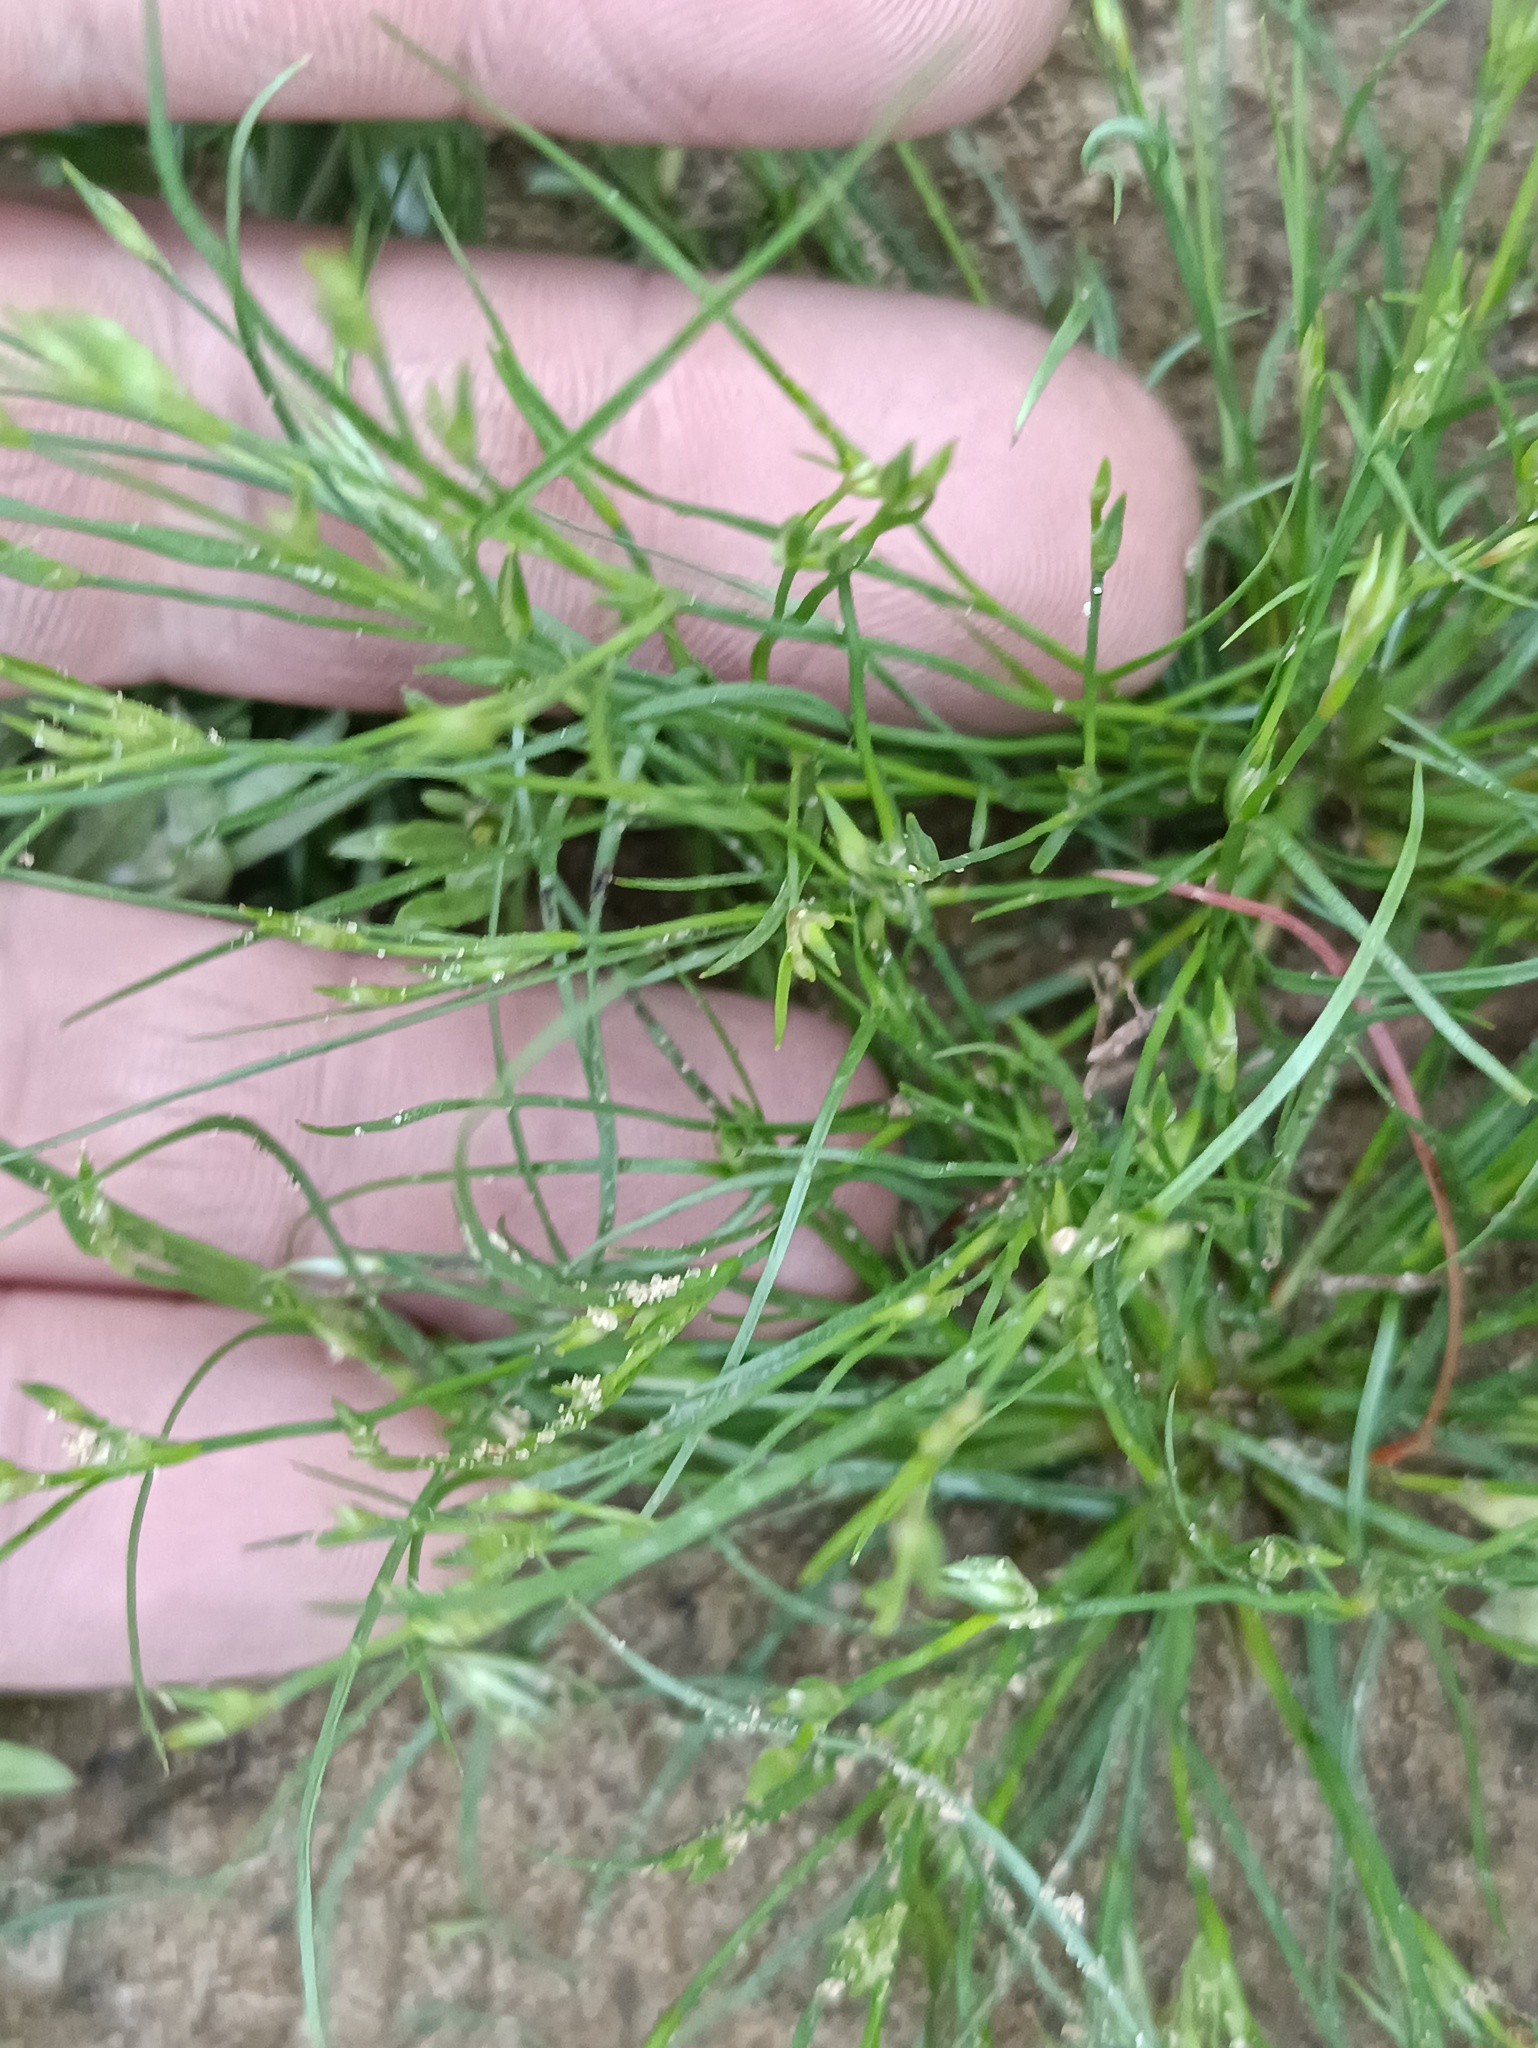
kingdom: Plantae
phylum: Tracheophyta
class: Liliopsida
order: Poales
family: Juncaceae
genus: Juncus
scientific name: Juncus bufonius
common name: Toad rush
